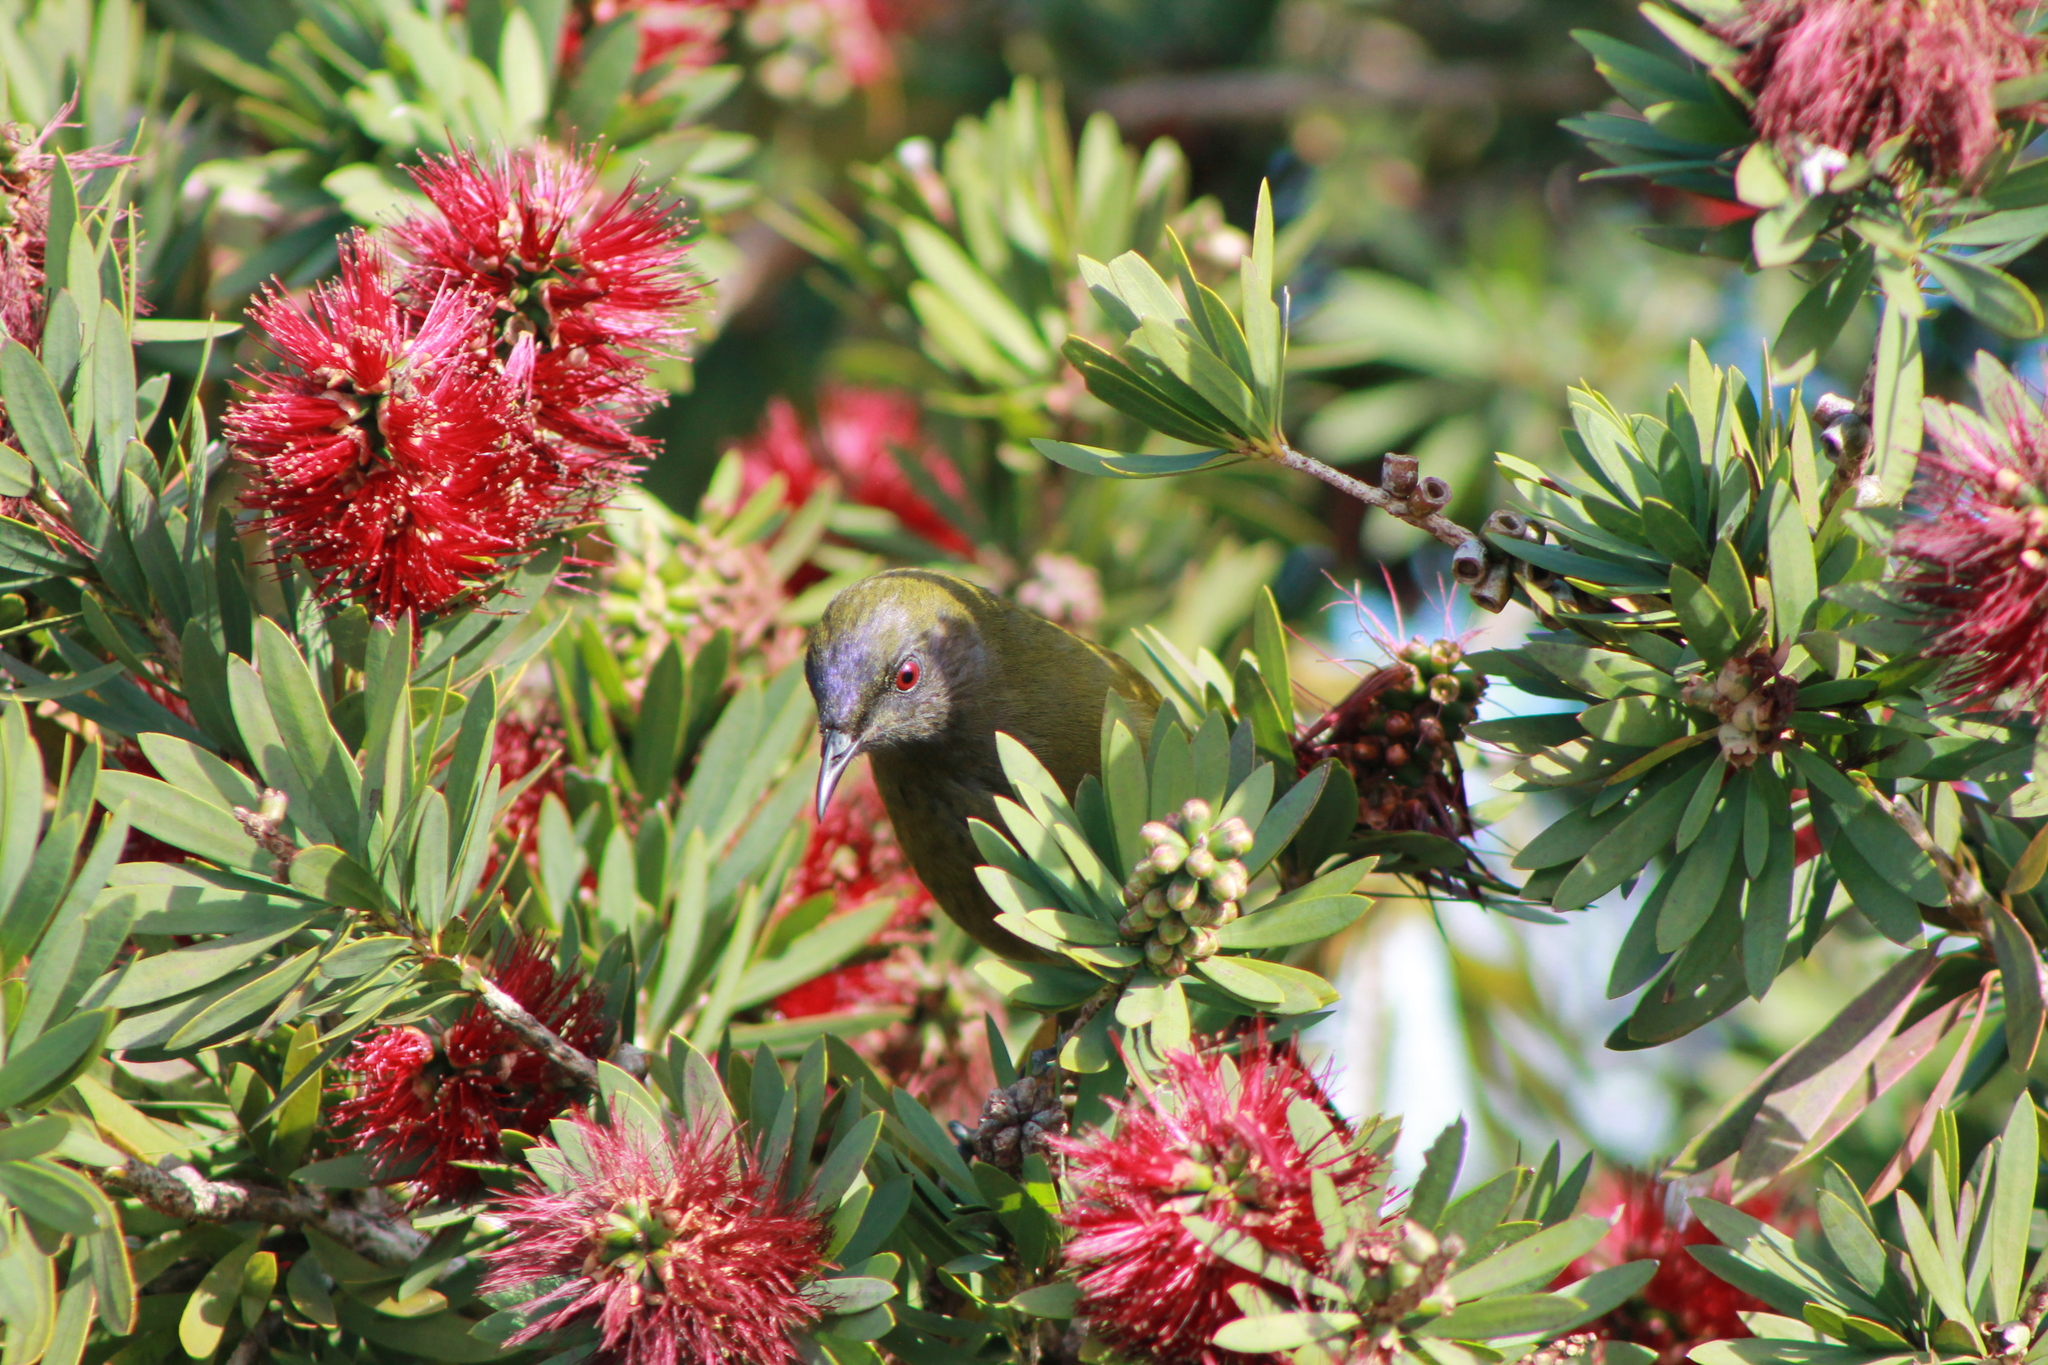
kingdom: Animalia
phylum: Chordata
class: Aves
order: Passeriformes
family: Meliphagidae
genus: Anthornis
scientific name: Anthornis melanura
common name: New zealand bellbird
